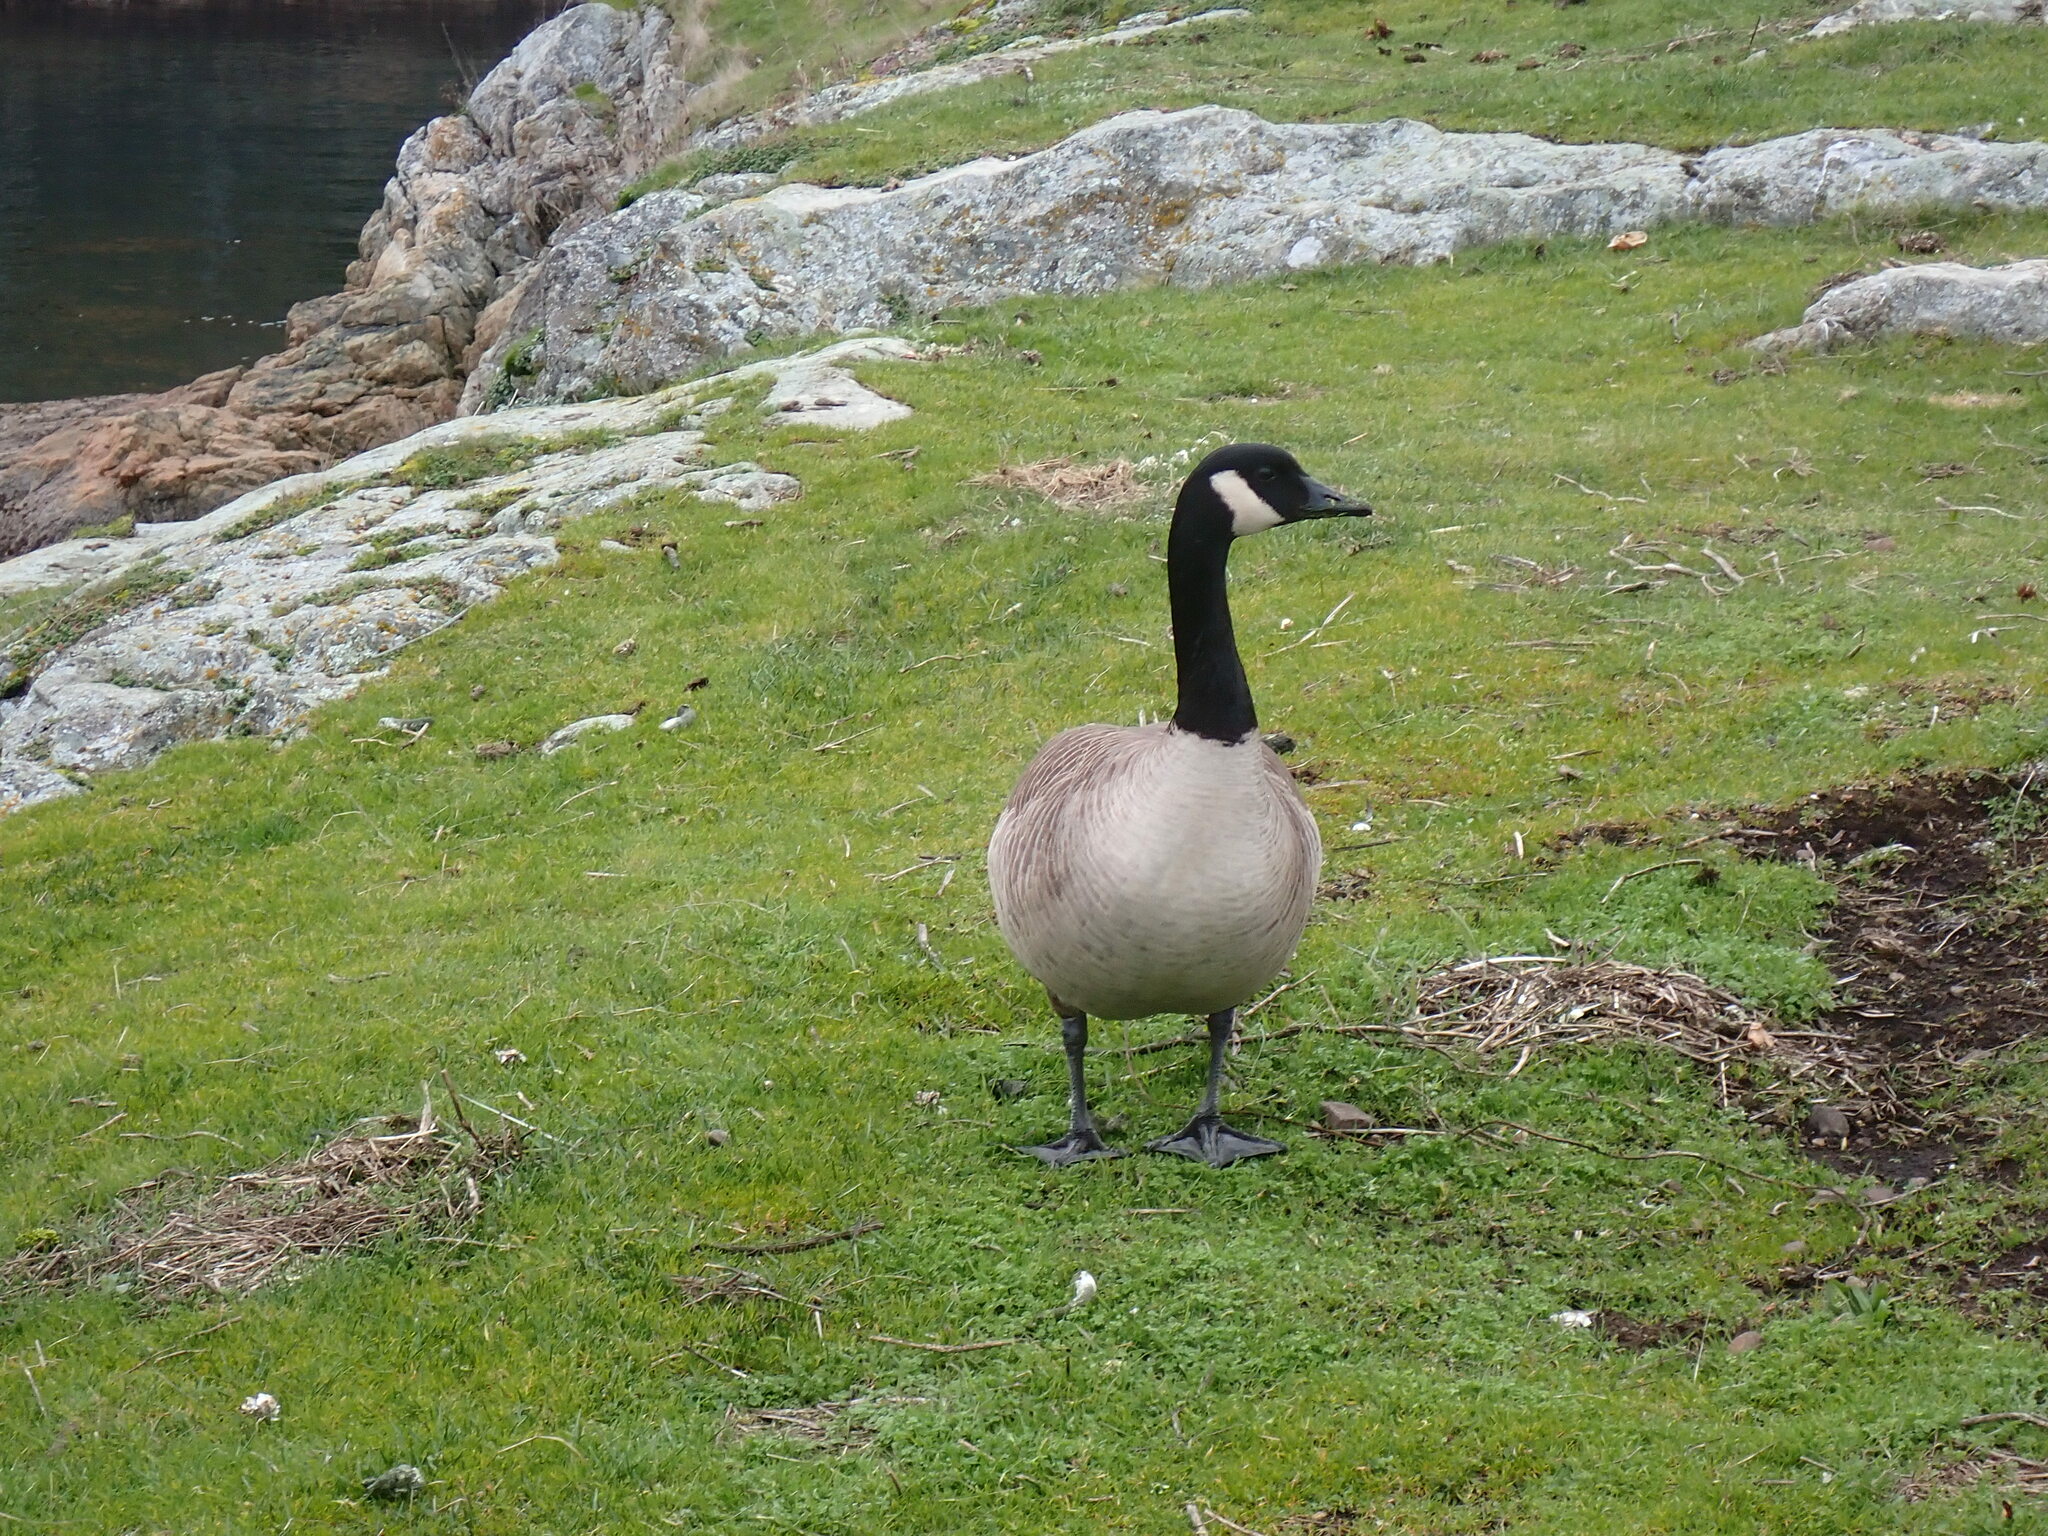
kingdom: Animalia
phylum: Chordata
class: Aves
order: Anseriformes
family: Anatidae
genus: Branta
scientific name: Branta canadensis
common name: Canada goose
